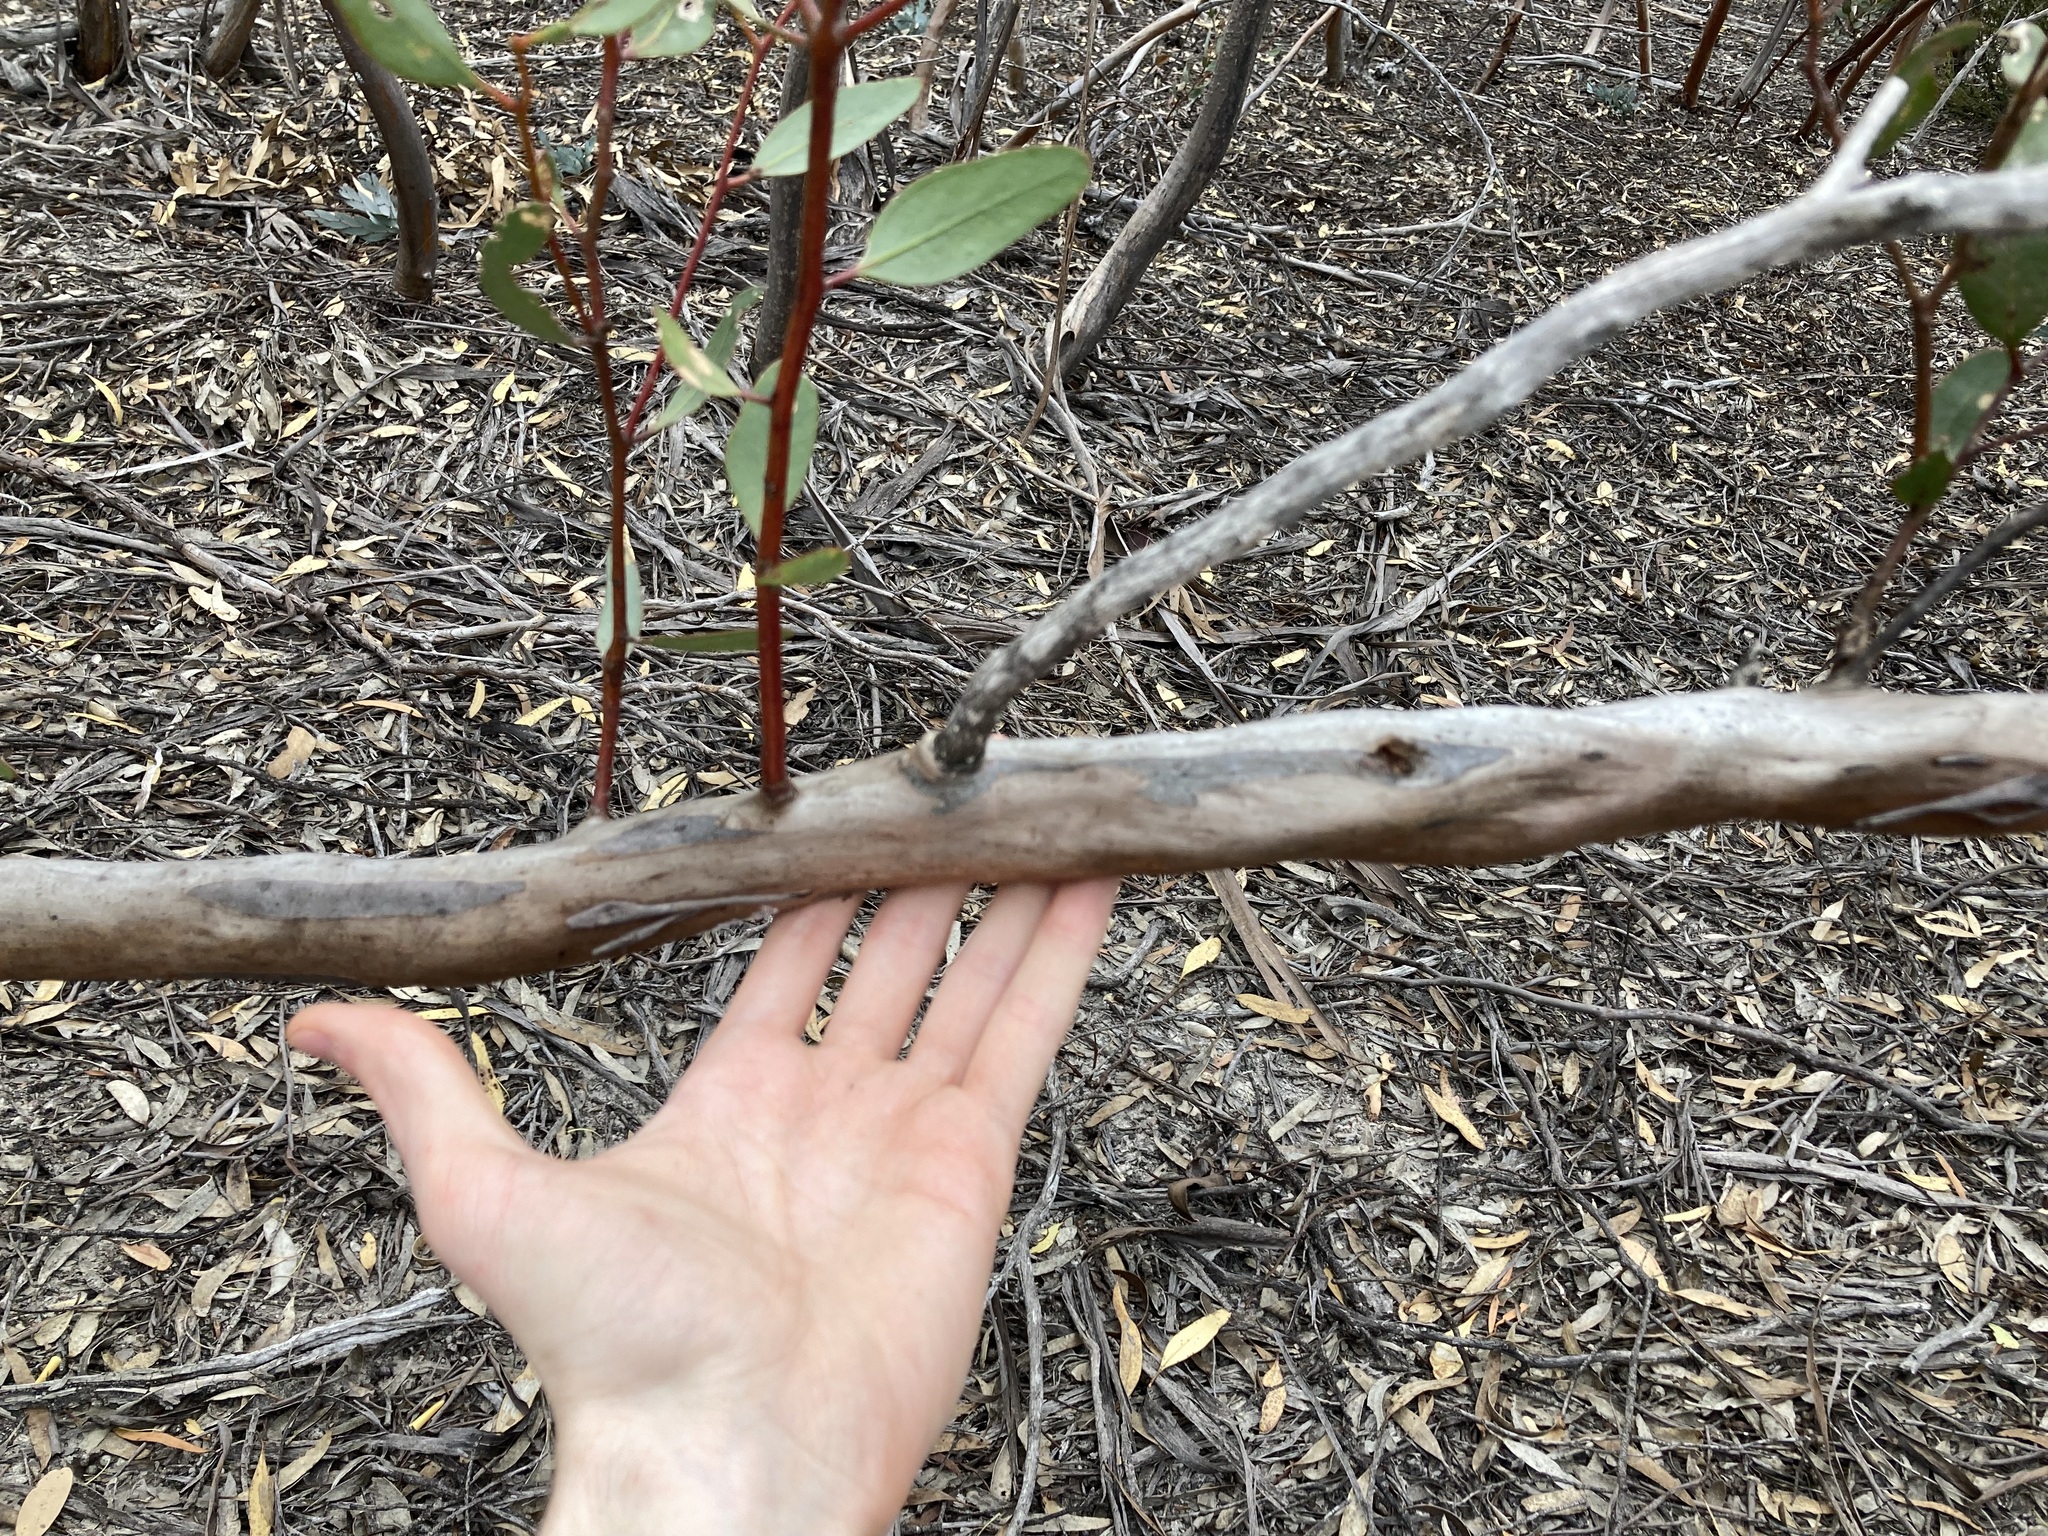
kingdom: Plantae
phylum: Tracheophyta
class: Magnoliopsida
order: Myrtales
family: Myrtaceae
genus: Eucalyptus
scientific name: Eucalyptus tenera
